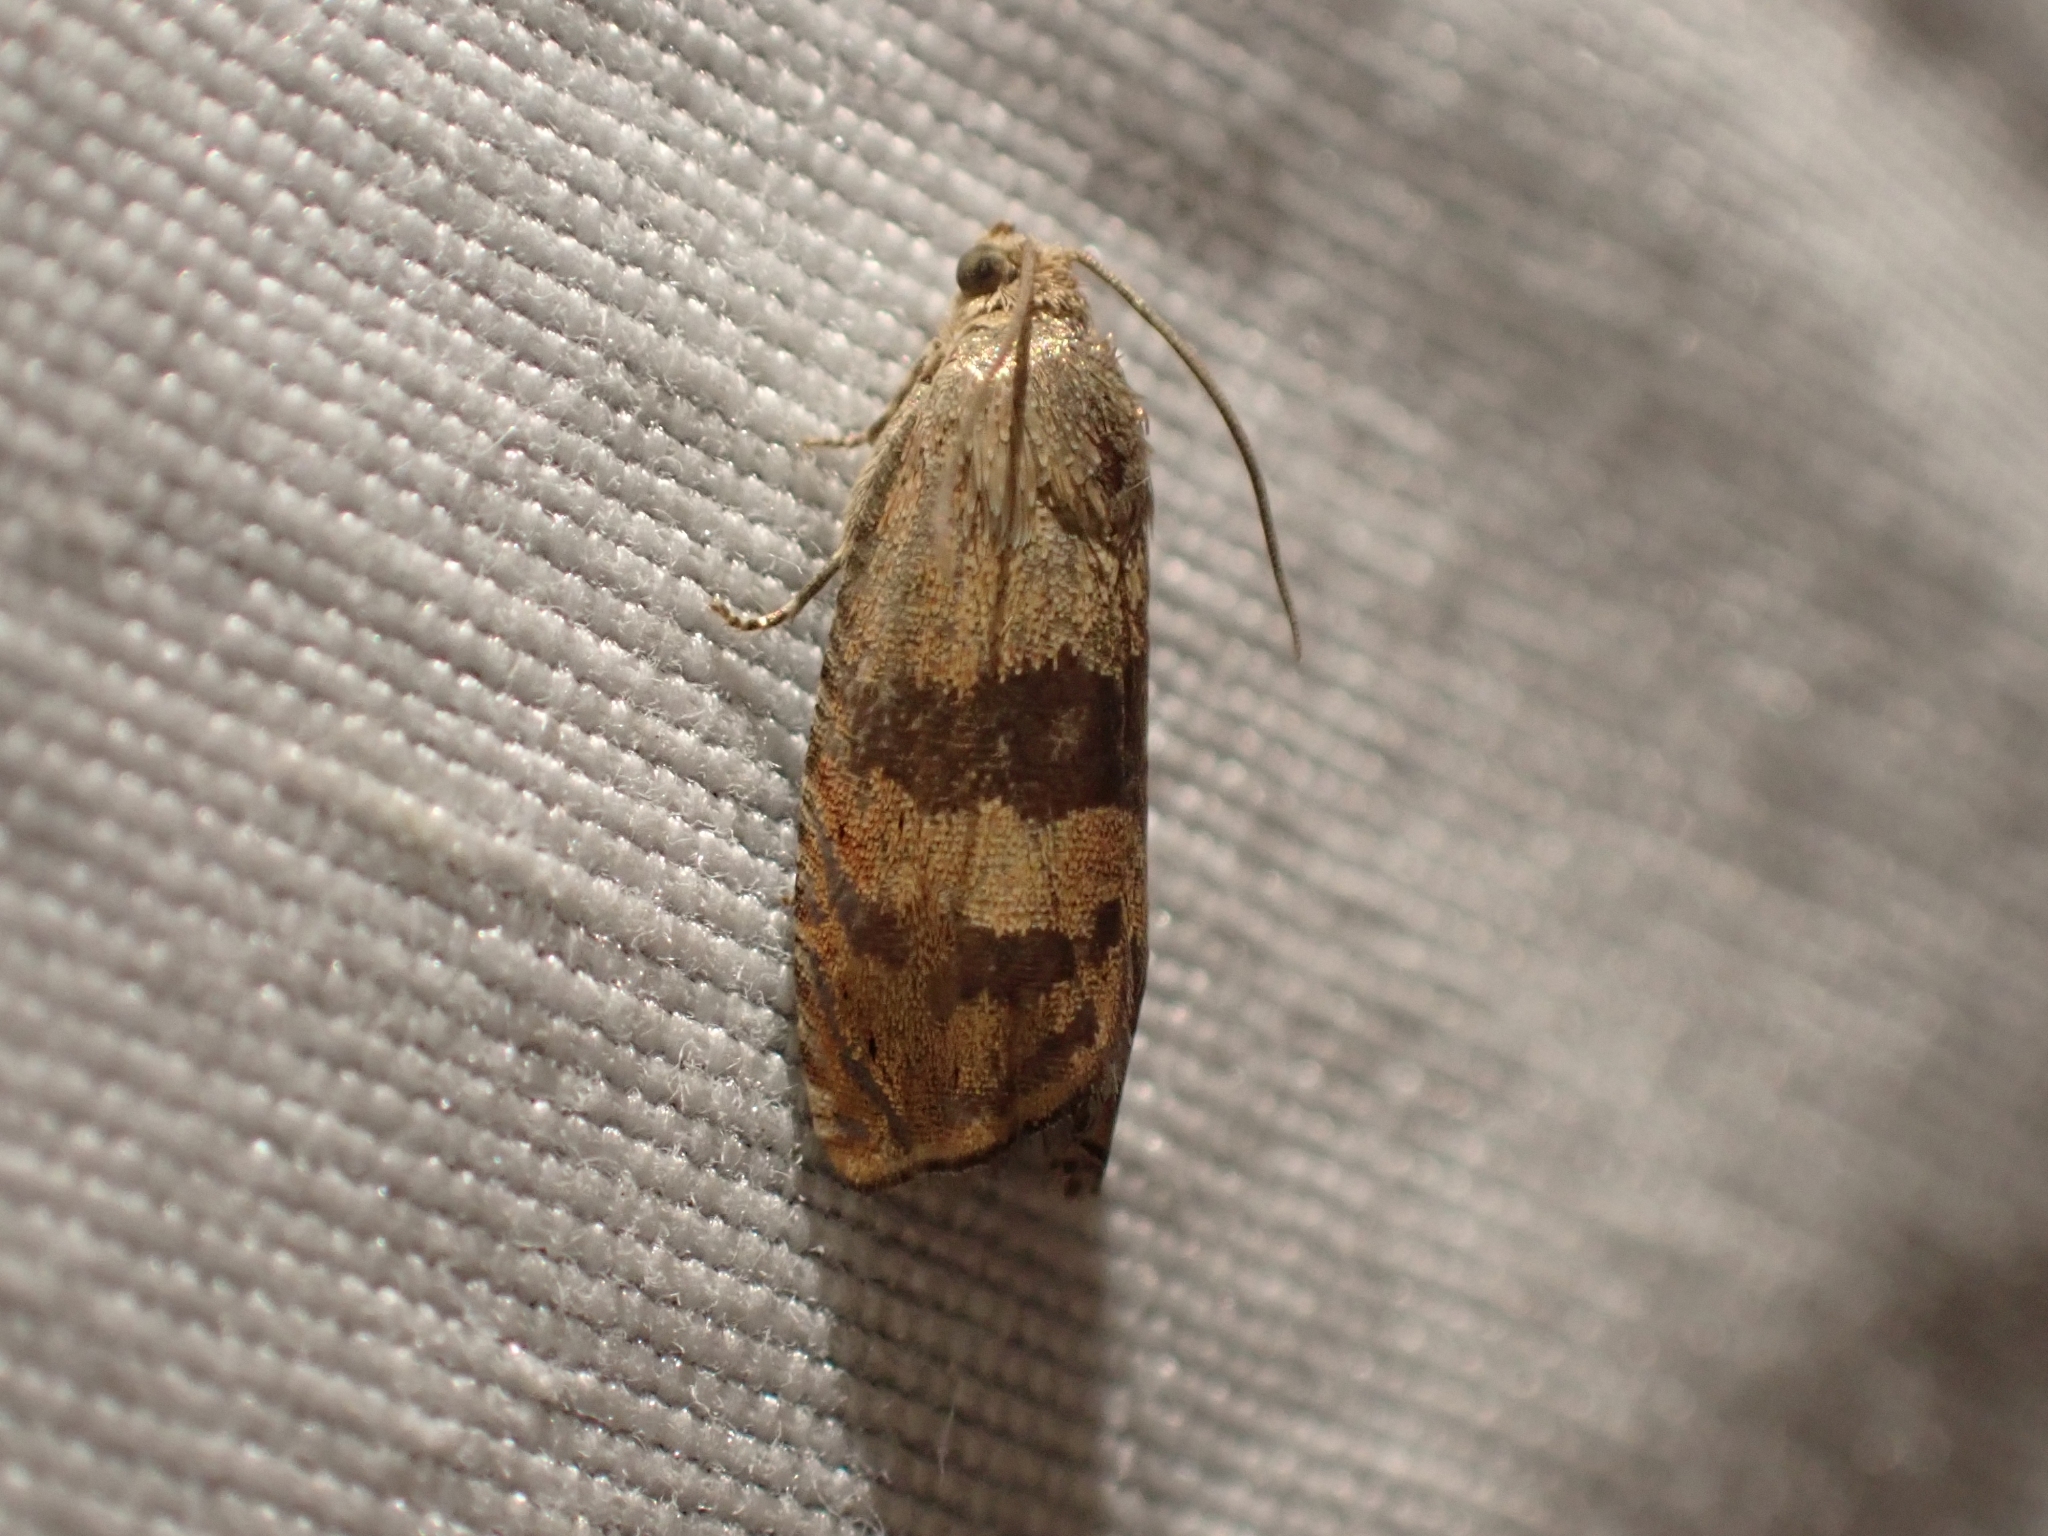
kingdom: Animalia
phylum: Arthropoda
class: Insecta
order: Lepidoptera
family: Tortricidae
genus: Cydia
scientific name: Cydia latiferreana
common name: Filbertworm moth
